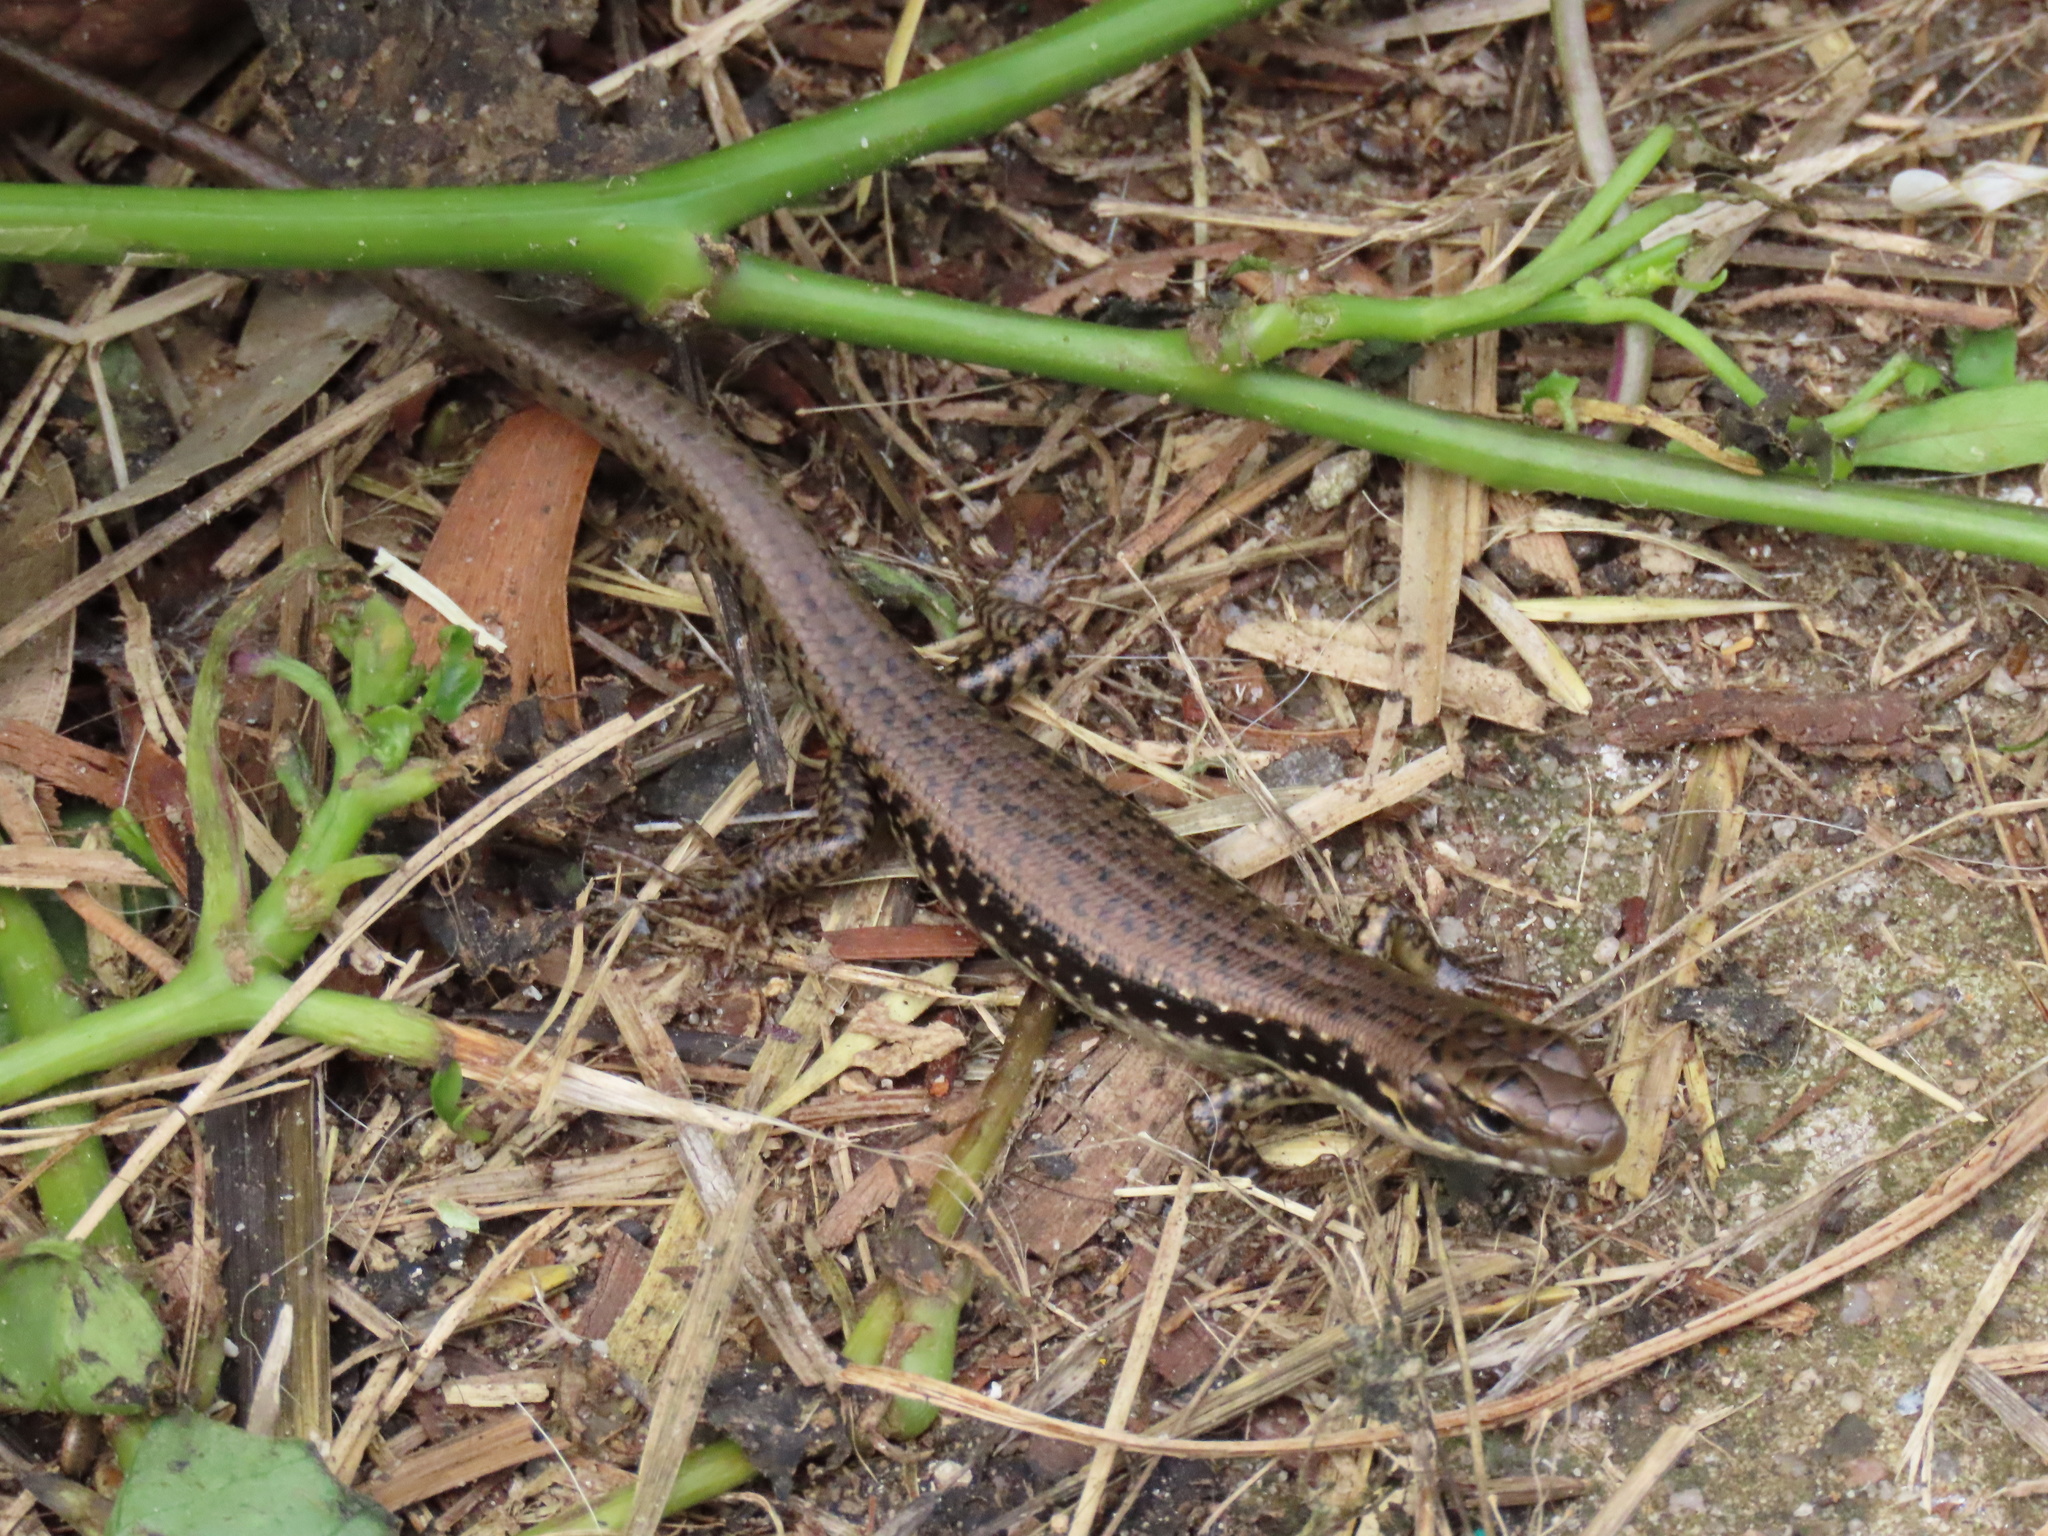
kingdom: Animalia
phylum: Chordata
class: Squamata
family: Scincidae
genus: Eulamprus
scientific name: Eulamprus tympanum
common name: Cool-temperate water-skink
